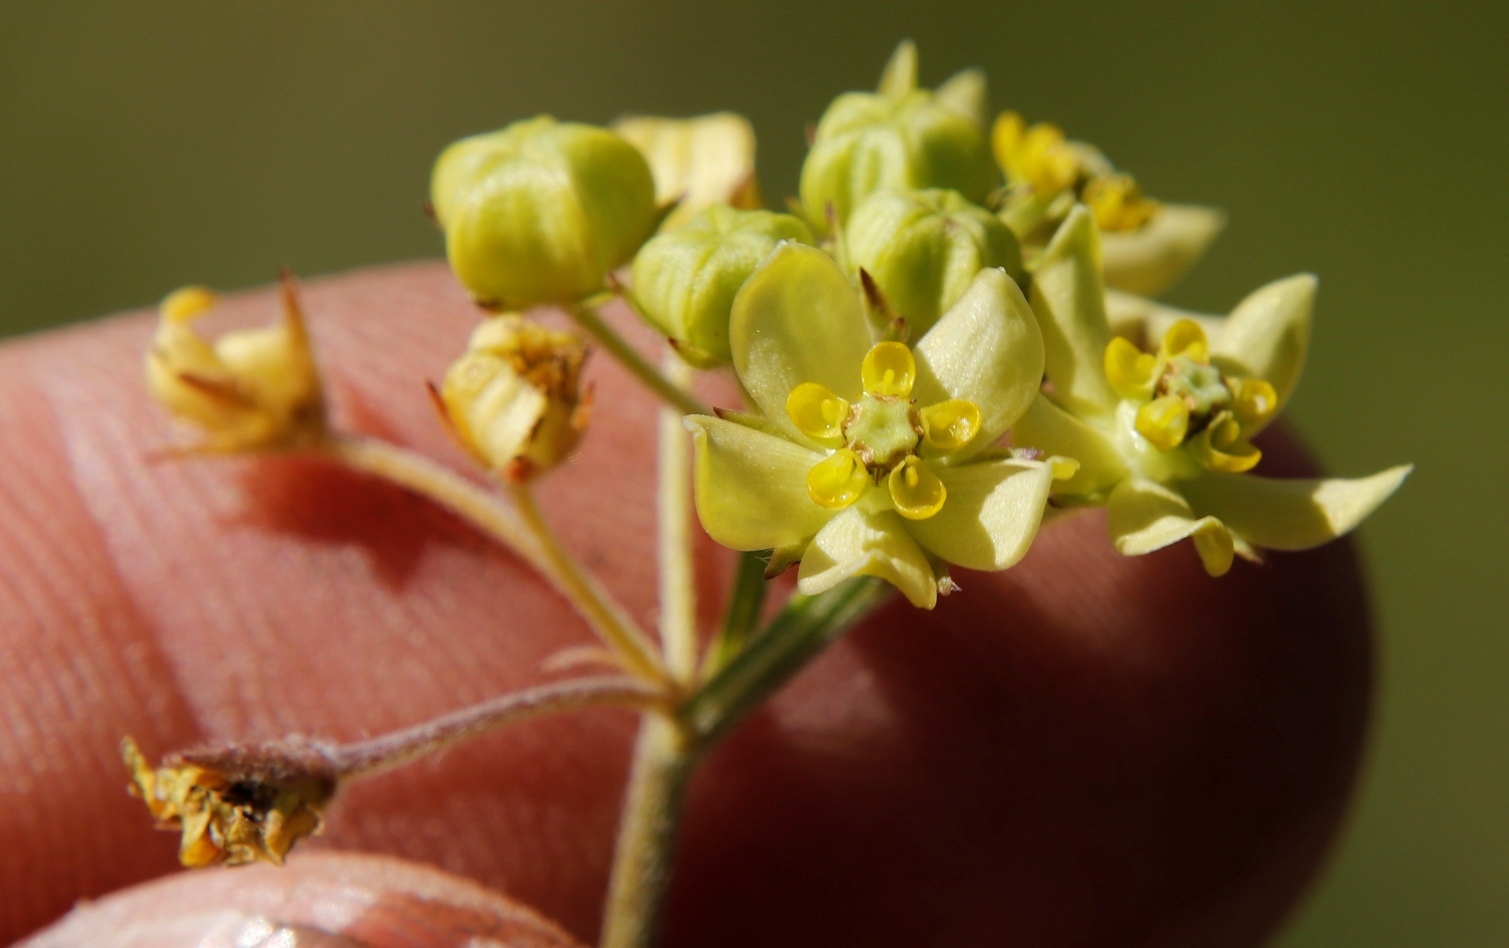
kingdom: Plantae
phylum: Tracheophyta
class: Magnoliopsida
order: Gentianales
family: Apocynaceae
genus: Aspidonepsis
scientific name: Aspidonepsis flava
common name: Small suncup
